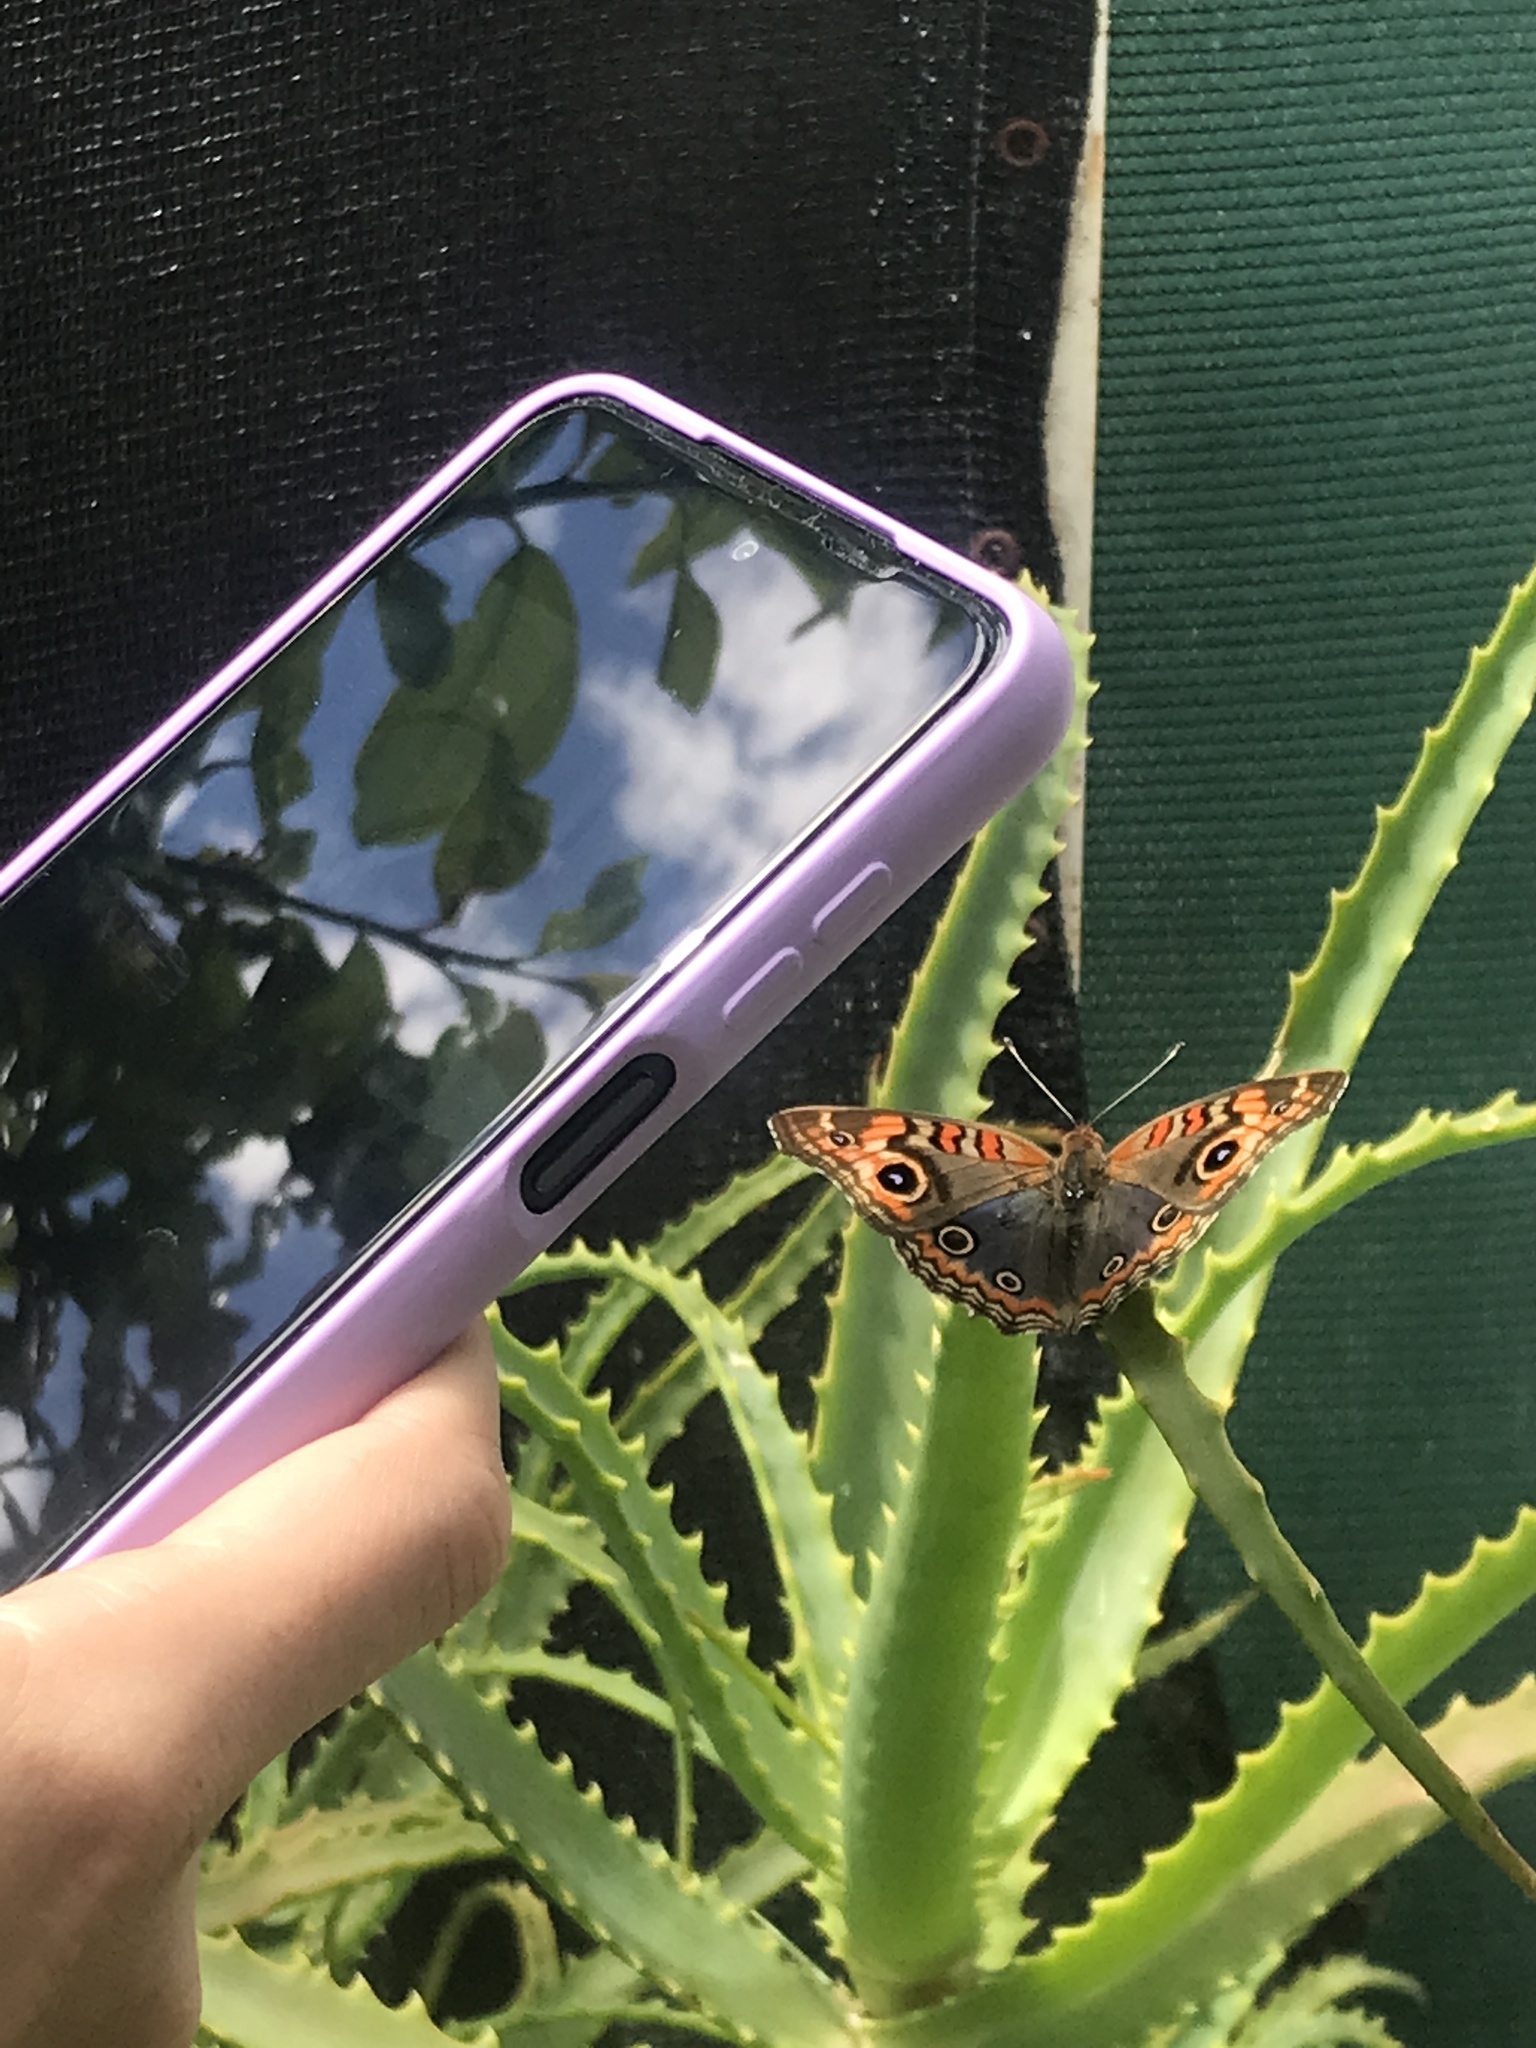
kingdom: Animalia
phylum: Arthropoda
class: Insecta
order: Lepidoptera
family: Nymphalidae
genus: Junonia
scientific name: Junonia lavinia
